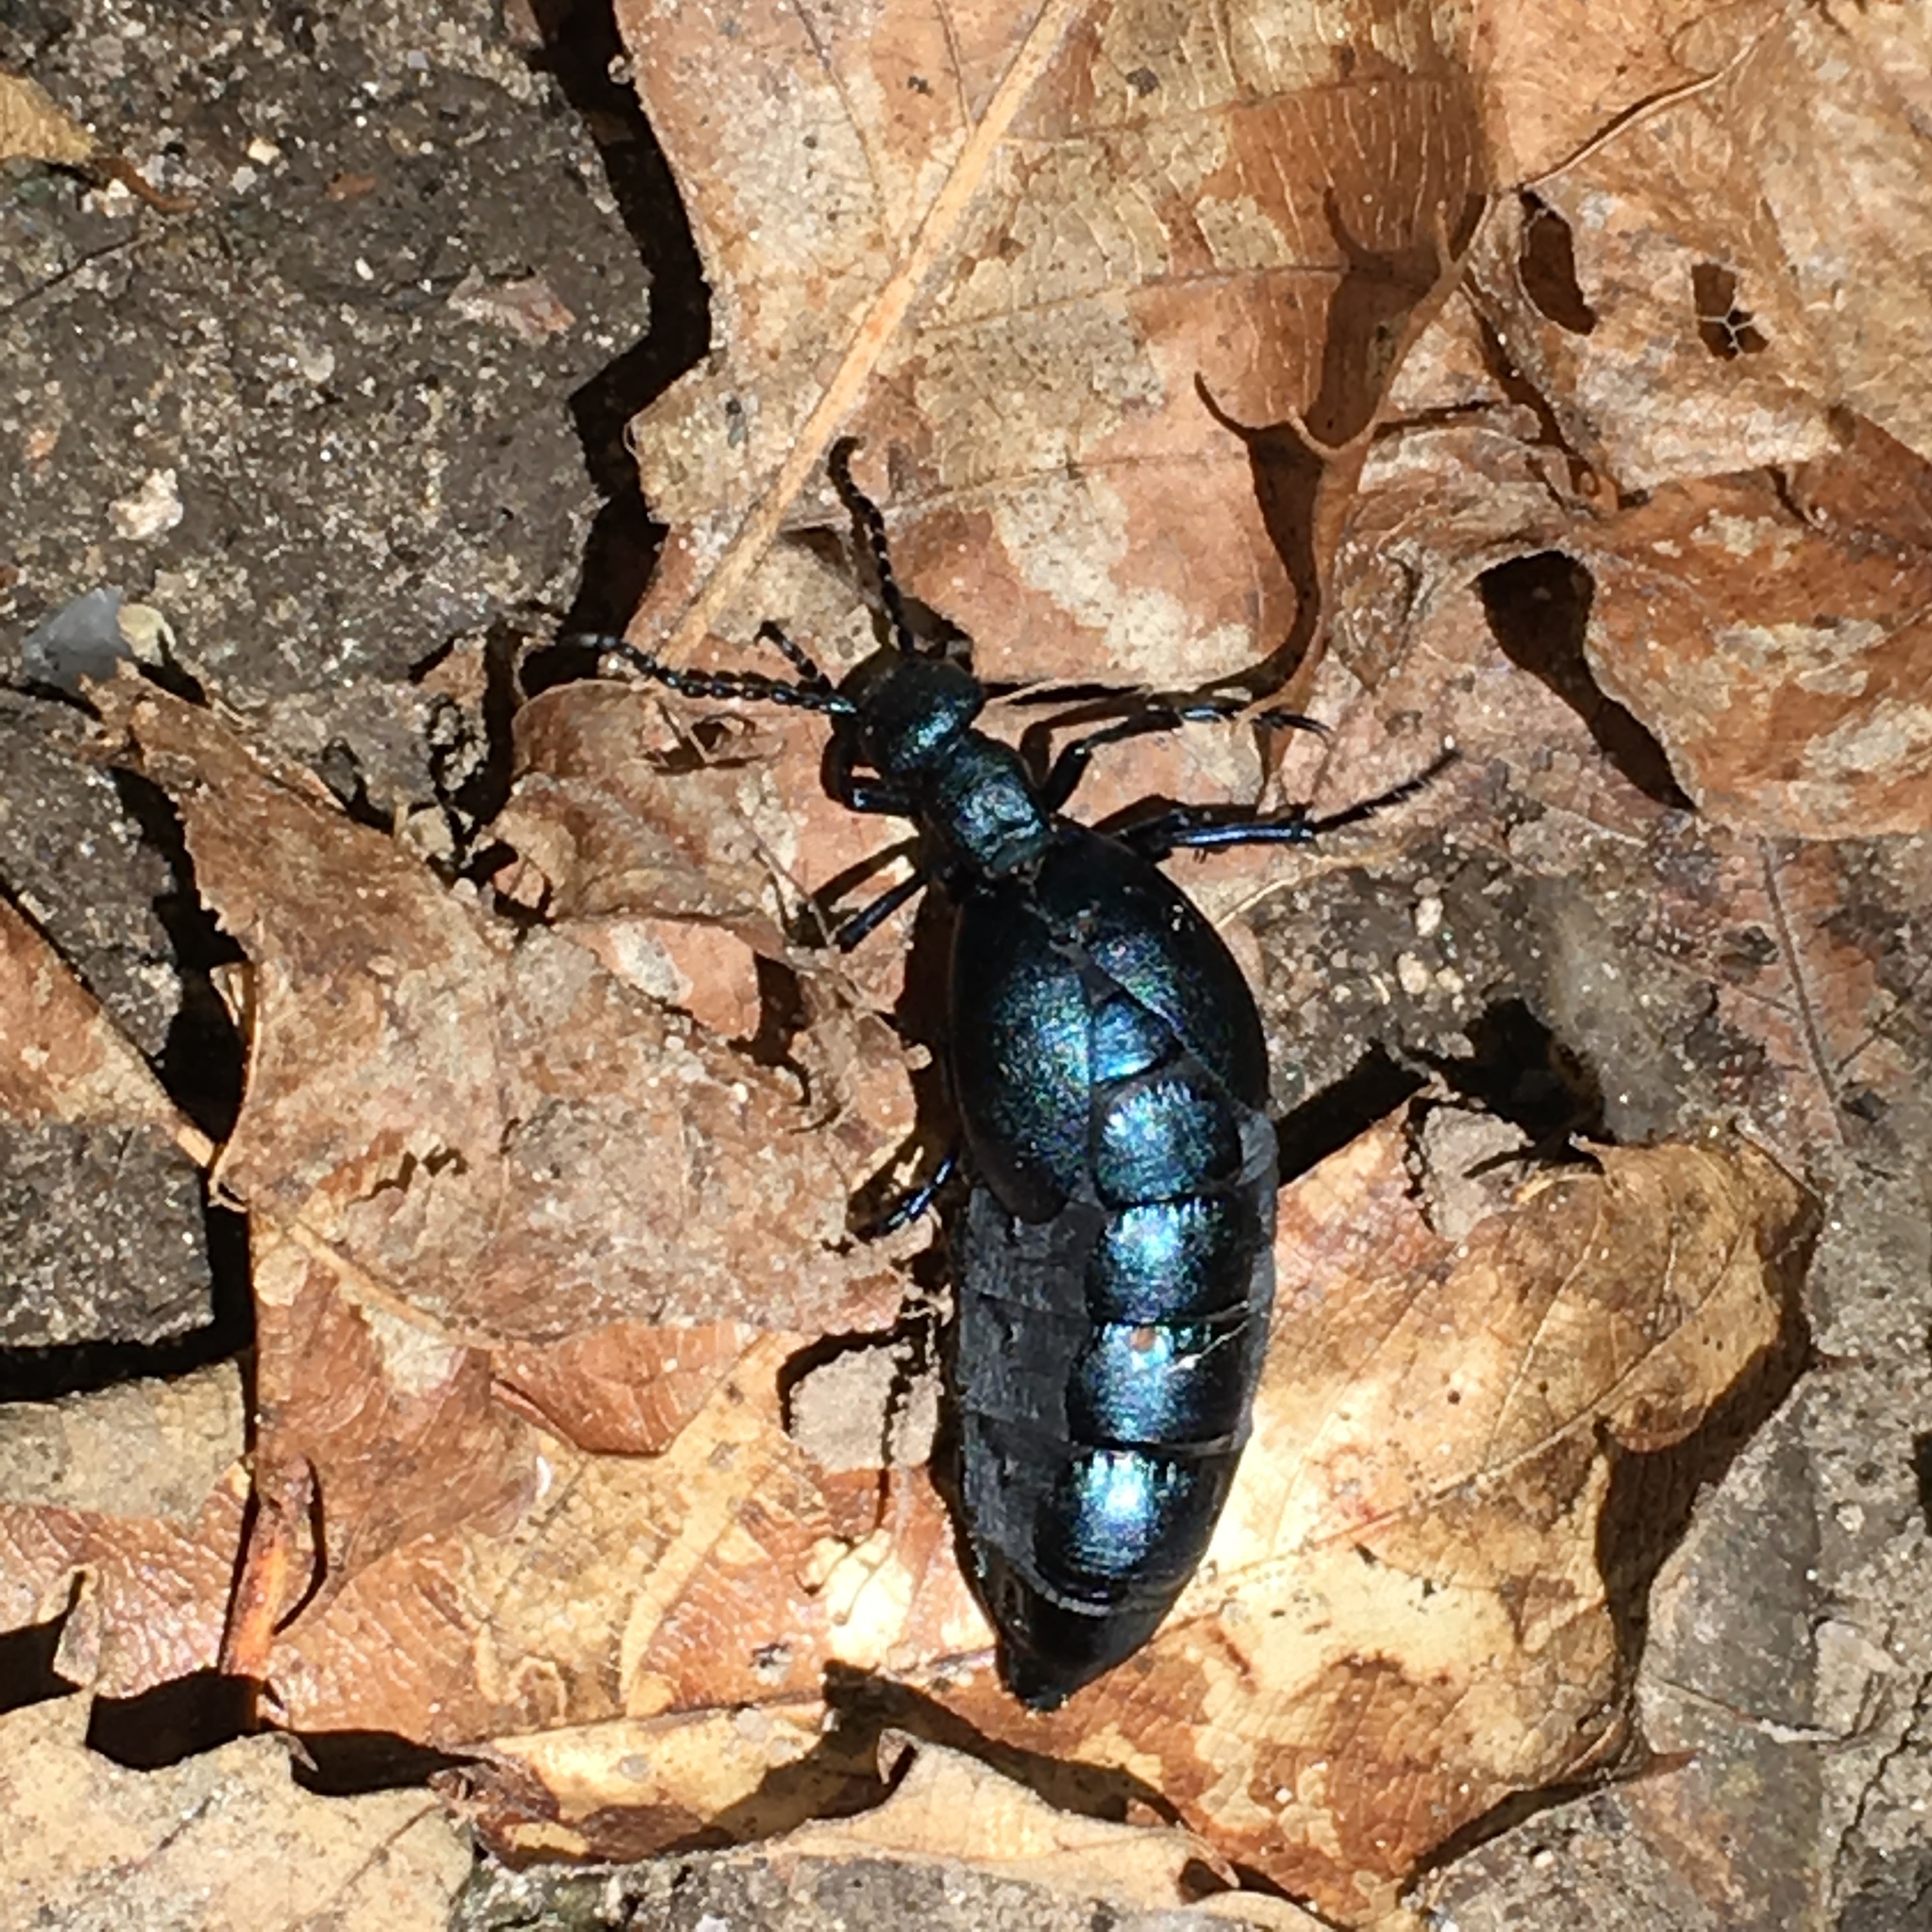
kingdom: Animalia
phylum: Arthropoda
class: Insecta
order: Coleoptera
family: Meloidae
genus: Meloe
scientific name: Meloe violaceus
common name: Violet oil-beetle
